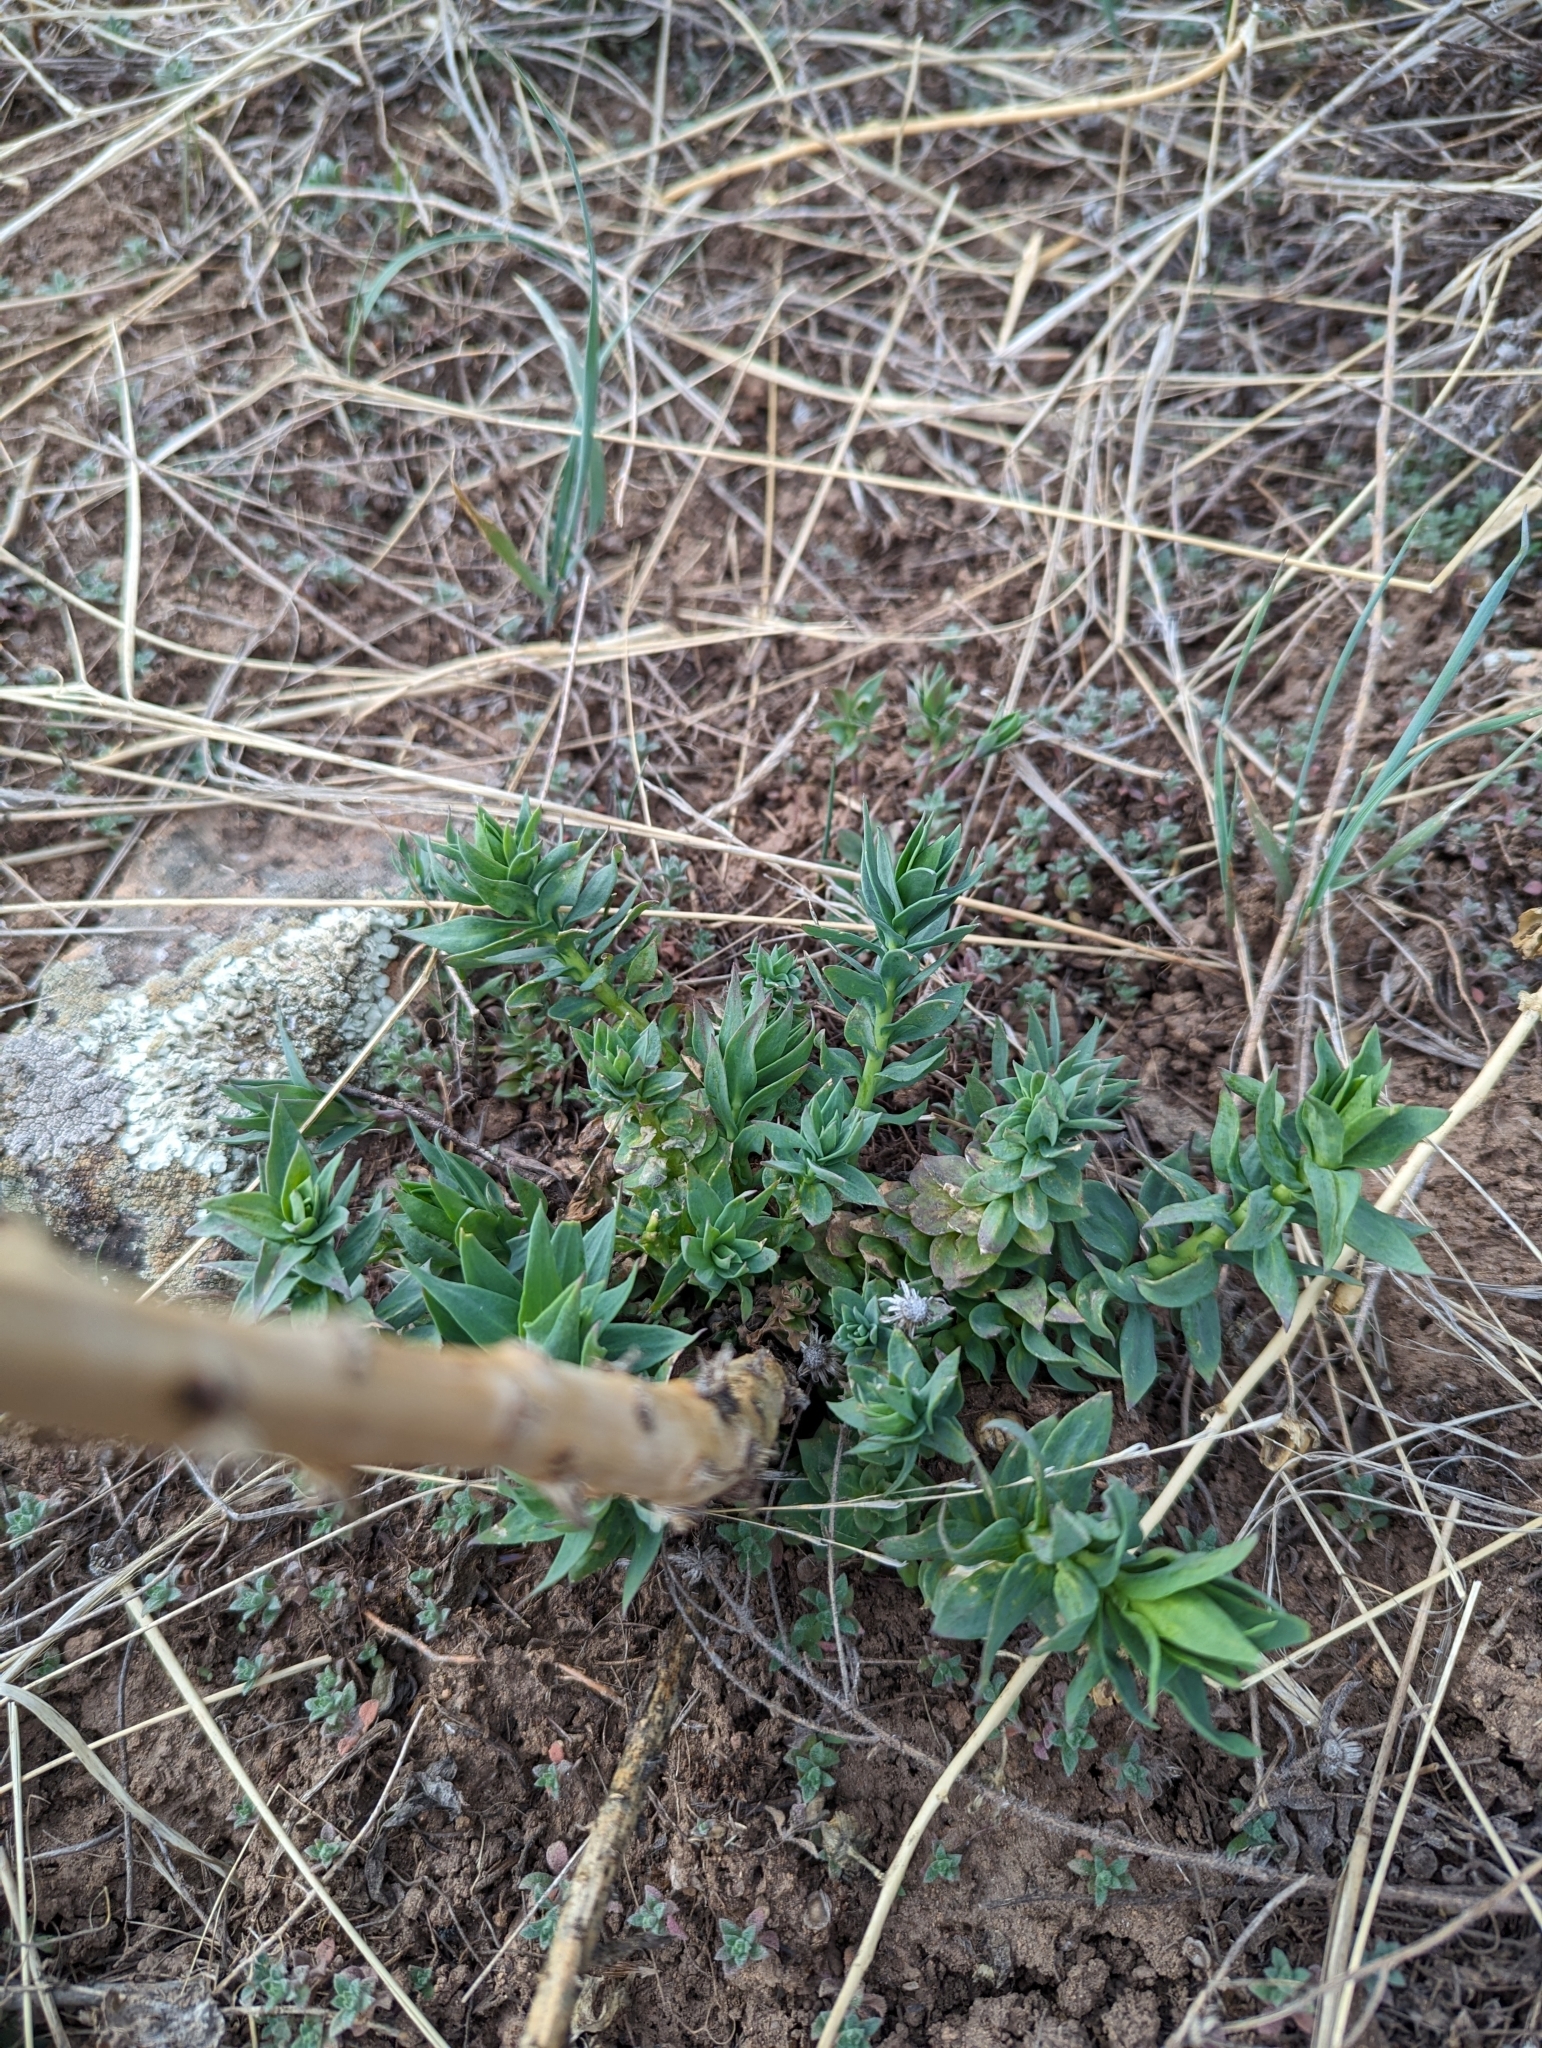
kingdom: Plantae
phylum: Tracheophyta
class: Magnoliopsida
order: Lamiales
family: Plantaginaceae
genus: Linaria
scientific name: Linaria dalmatica
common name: Dalmatian toadflax
